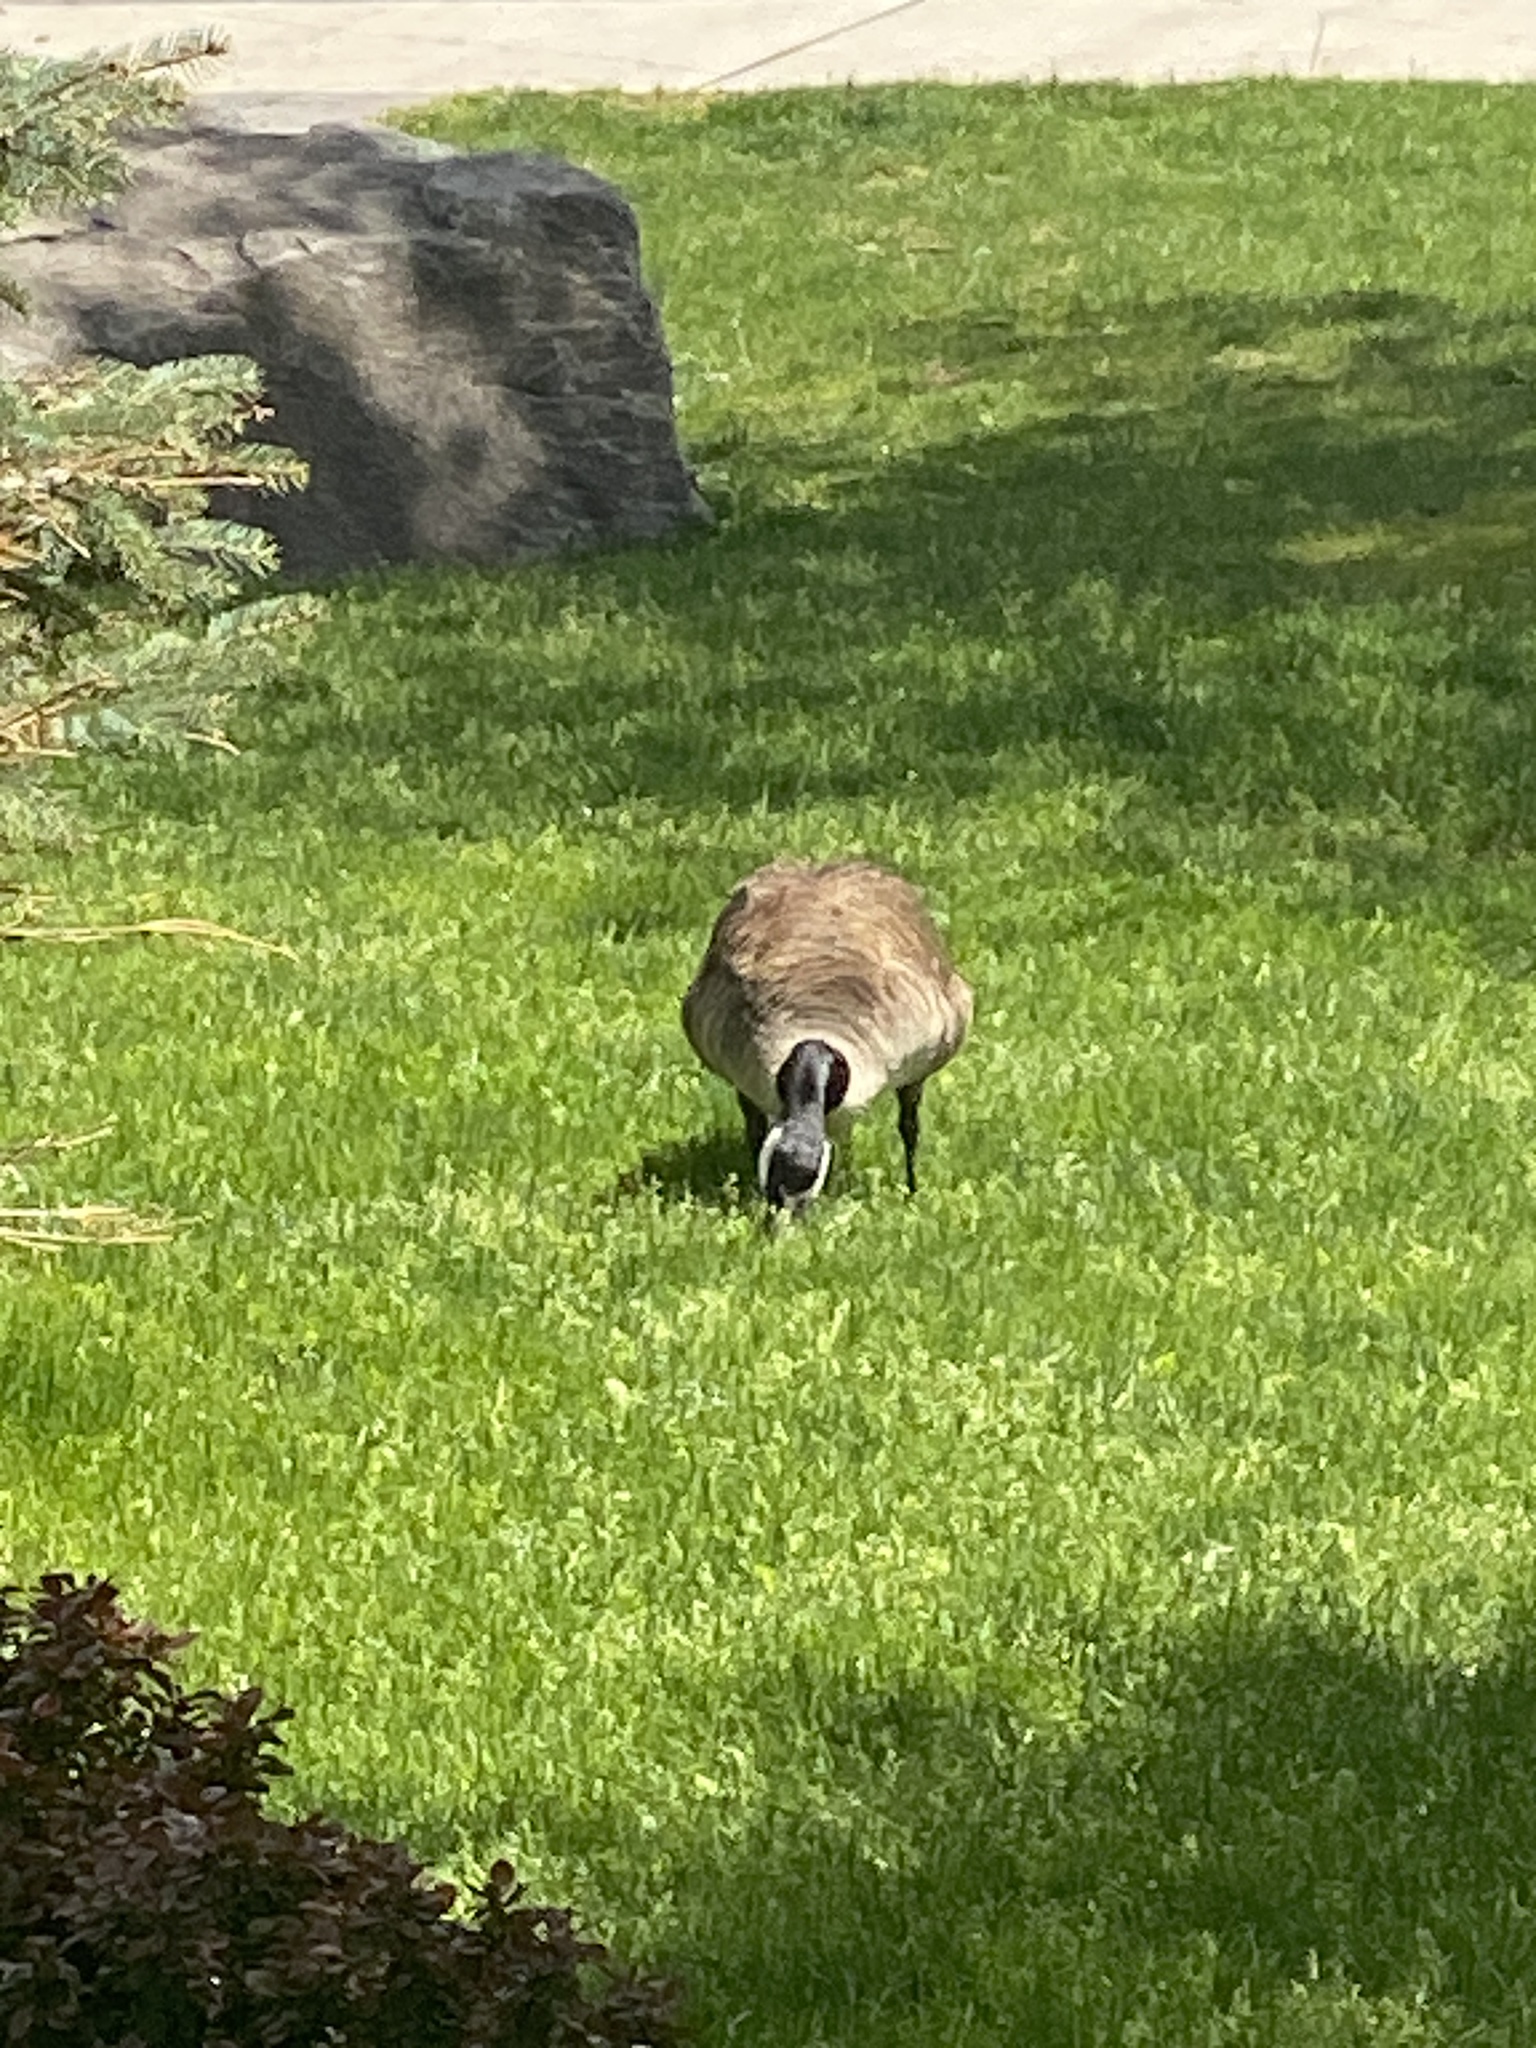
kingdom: Animalia
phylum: Chordata
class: Aves
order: Anseriformes
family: Anatidae
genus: Branta
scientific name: Branta canadensis
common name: Canada goose
